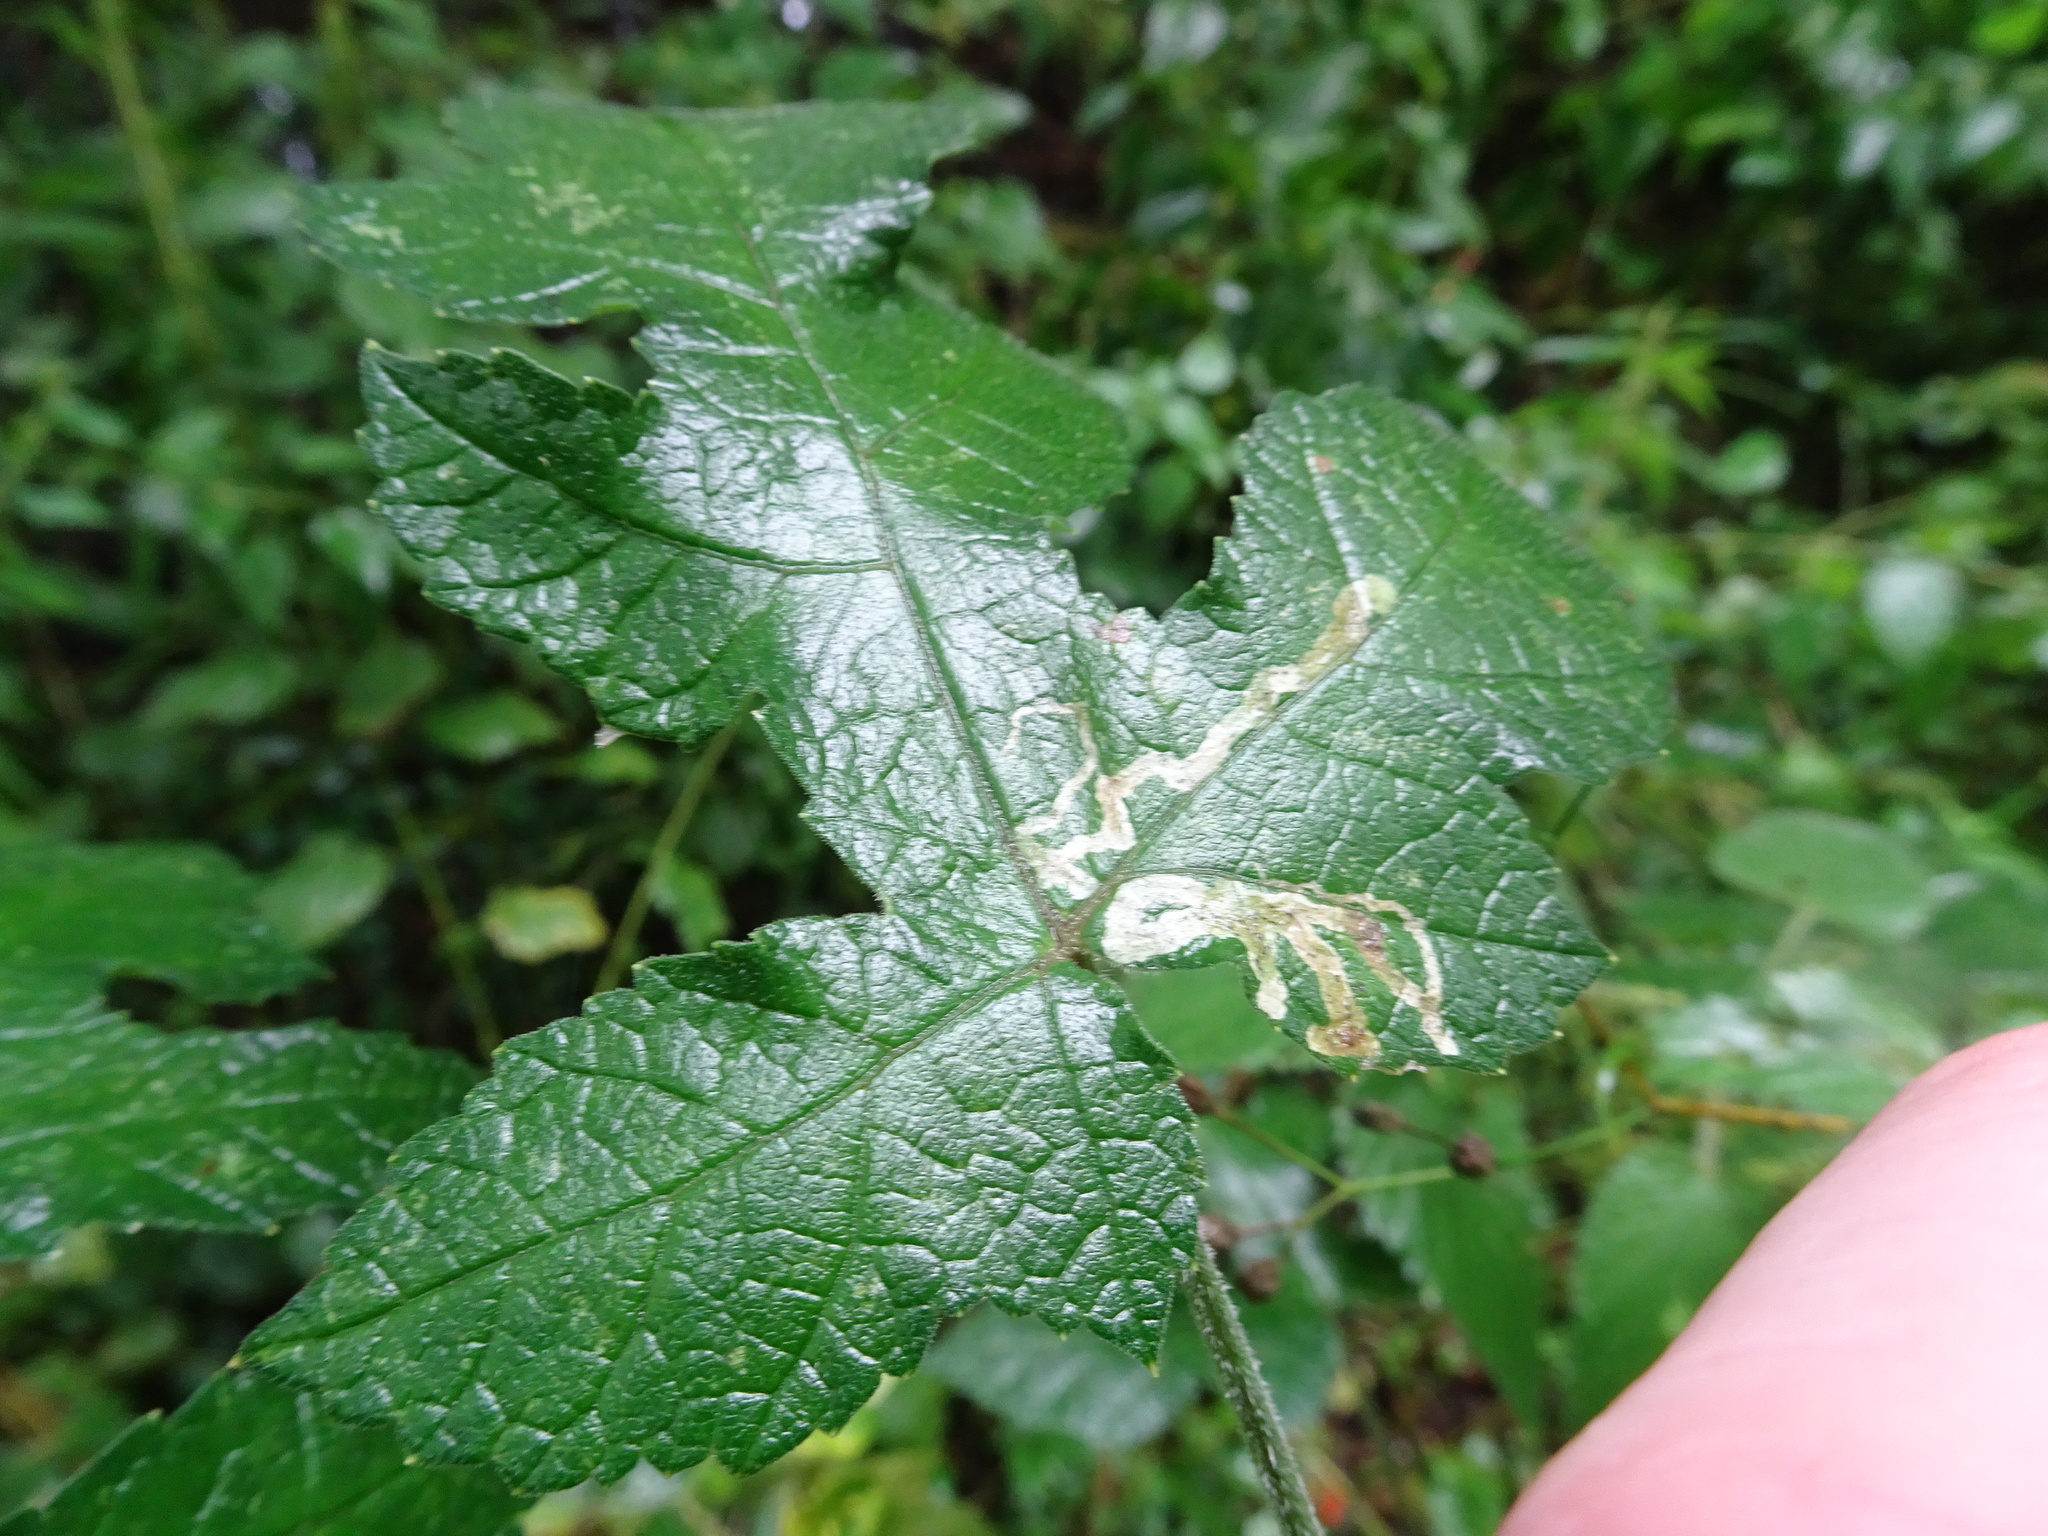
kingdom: Animalia
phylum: Arthropoda
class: Insecta
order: Diptera
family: Agromyzidae
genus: Phytomyza
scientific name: Phytomyza spondylii
